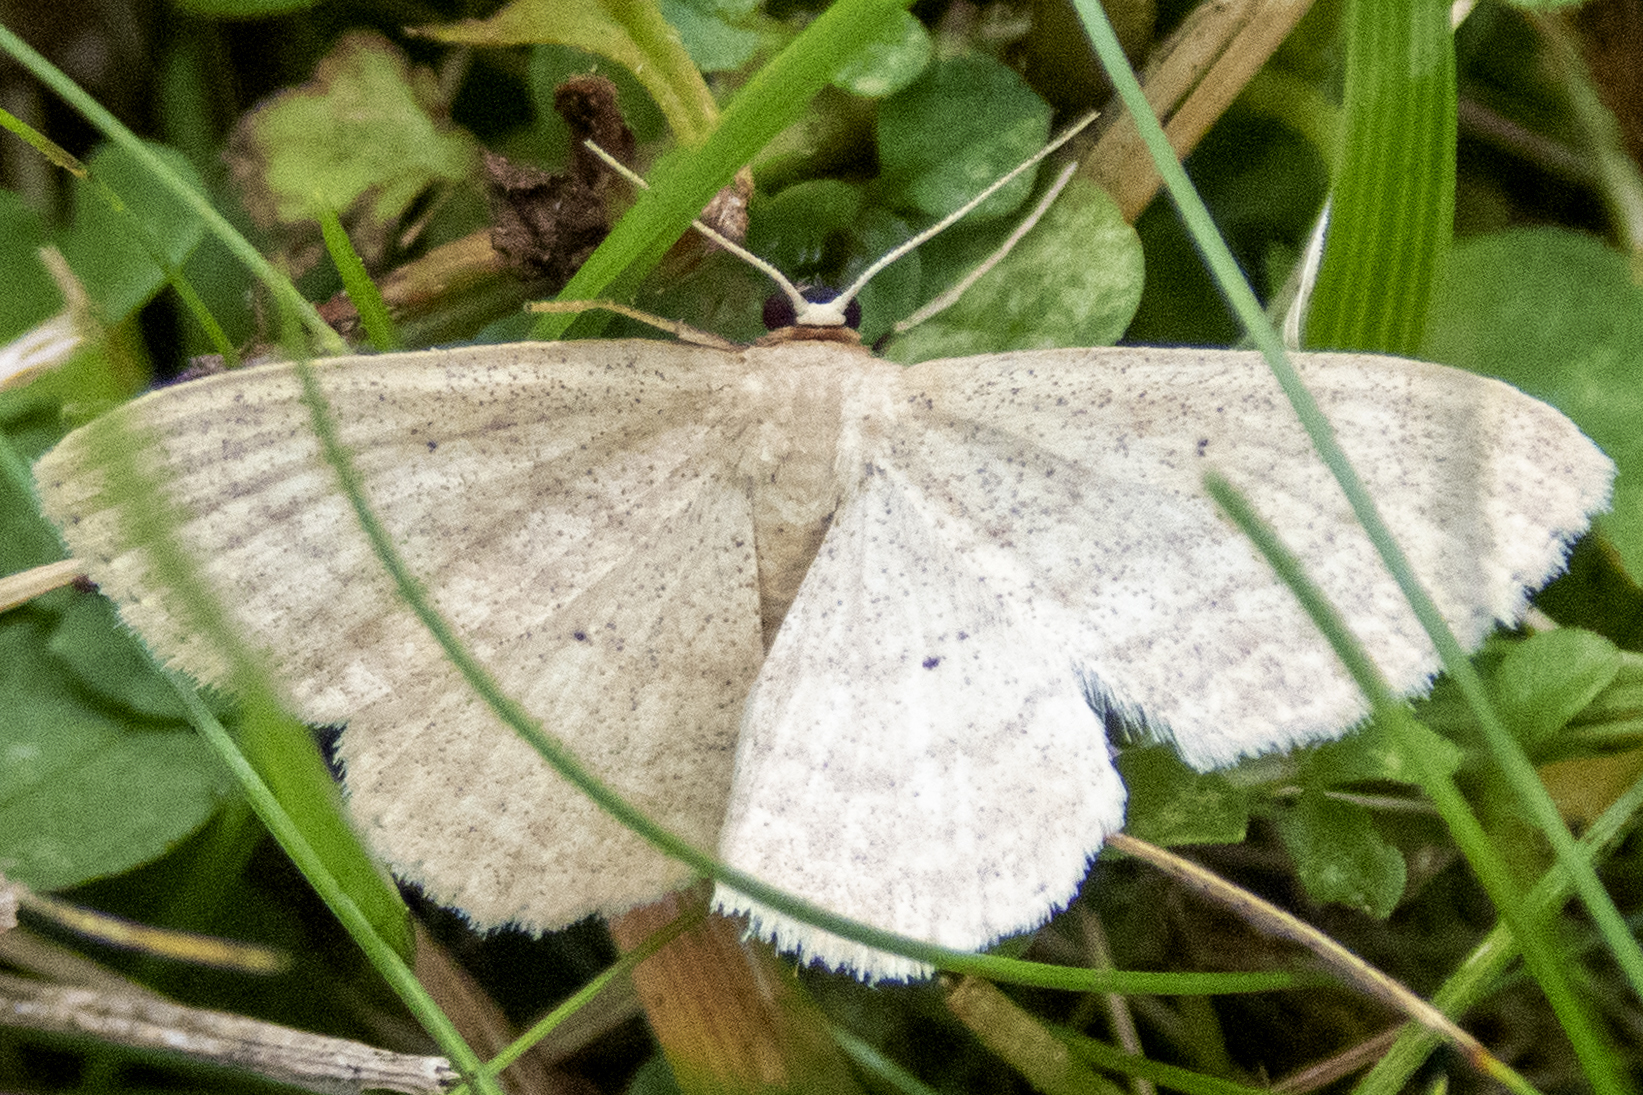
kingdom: Animalia
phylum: Arthropoda
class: Insecta
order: Lepidoptera
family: Geometridae
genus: Scopula
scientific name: Scopula inductata
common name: Soft-lined wave
